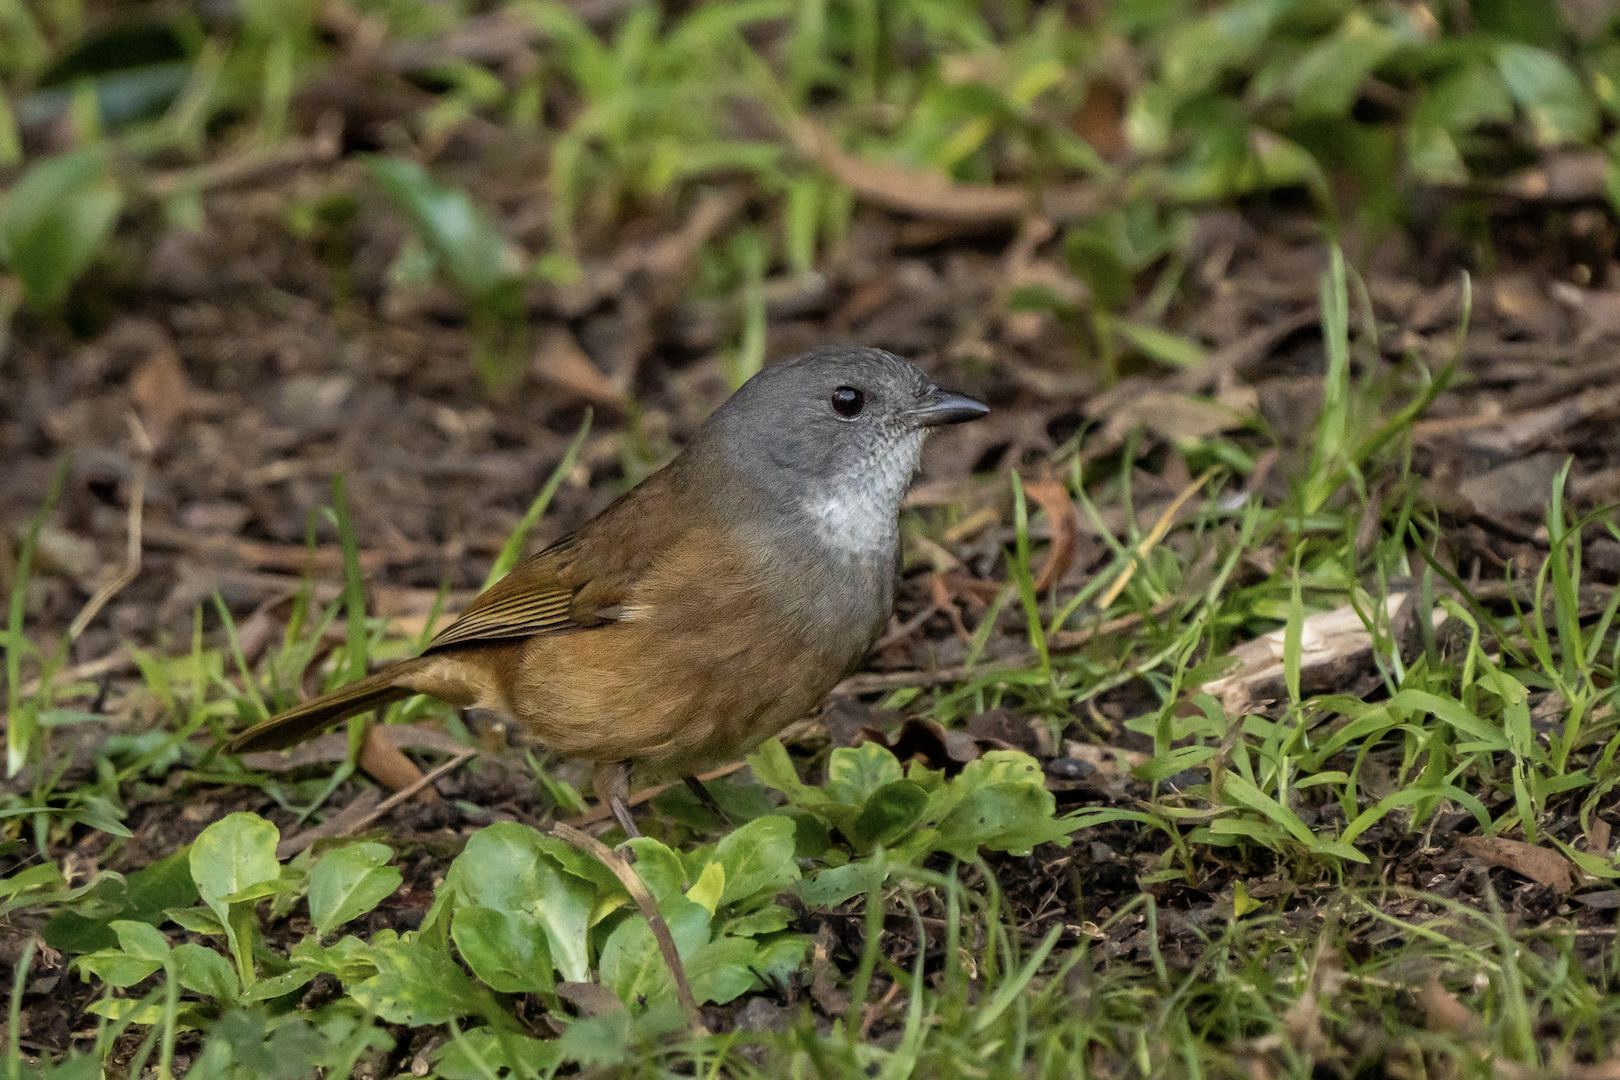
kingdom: Animalia
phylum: Chordata
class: Aves
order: Passeriformes
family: Pachycephalidae
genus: Pachycephala
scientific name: Pachycephala olivacea
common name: Olive whistler
